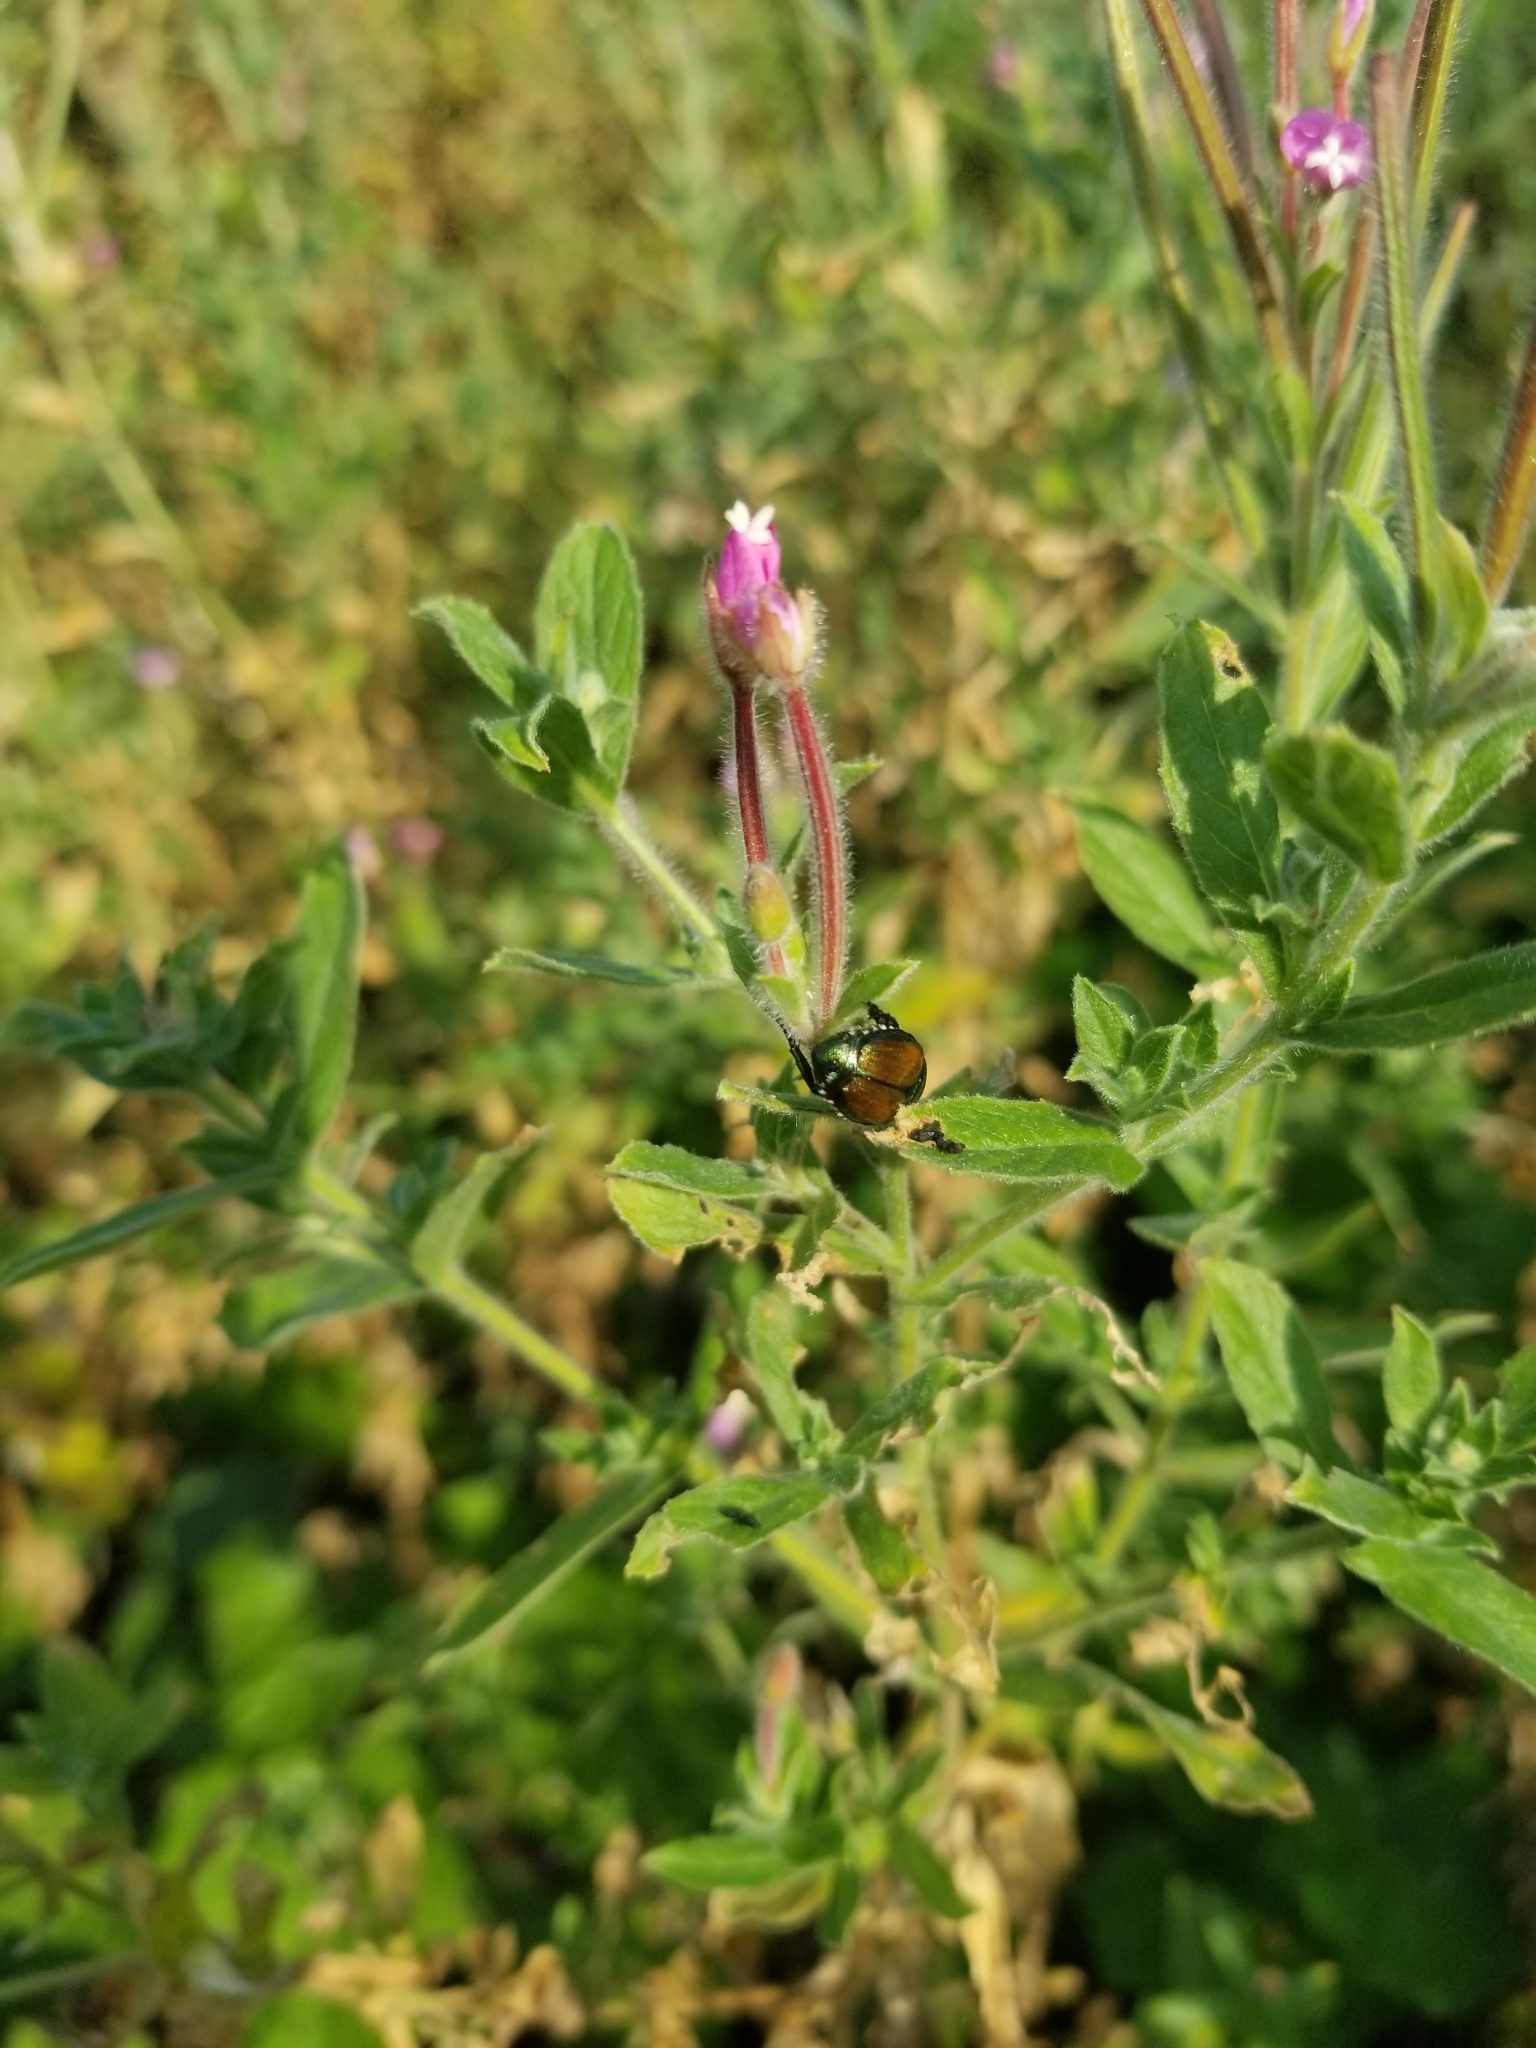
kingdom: Animalia
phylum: Arthropoda
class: Insecta
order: Coleoptera
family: Scarabaeidae
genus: Popillia
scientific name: Popillia japonica
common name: Japanese beetle
